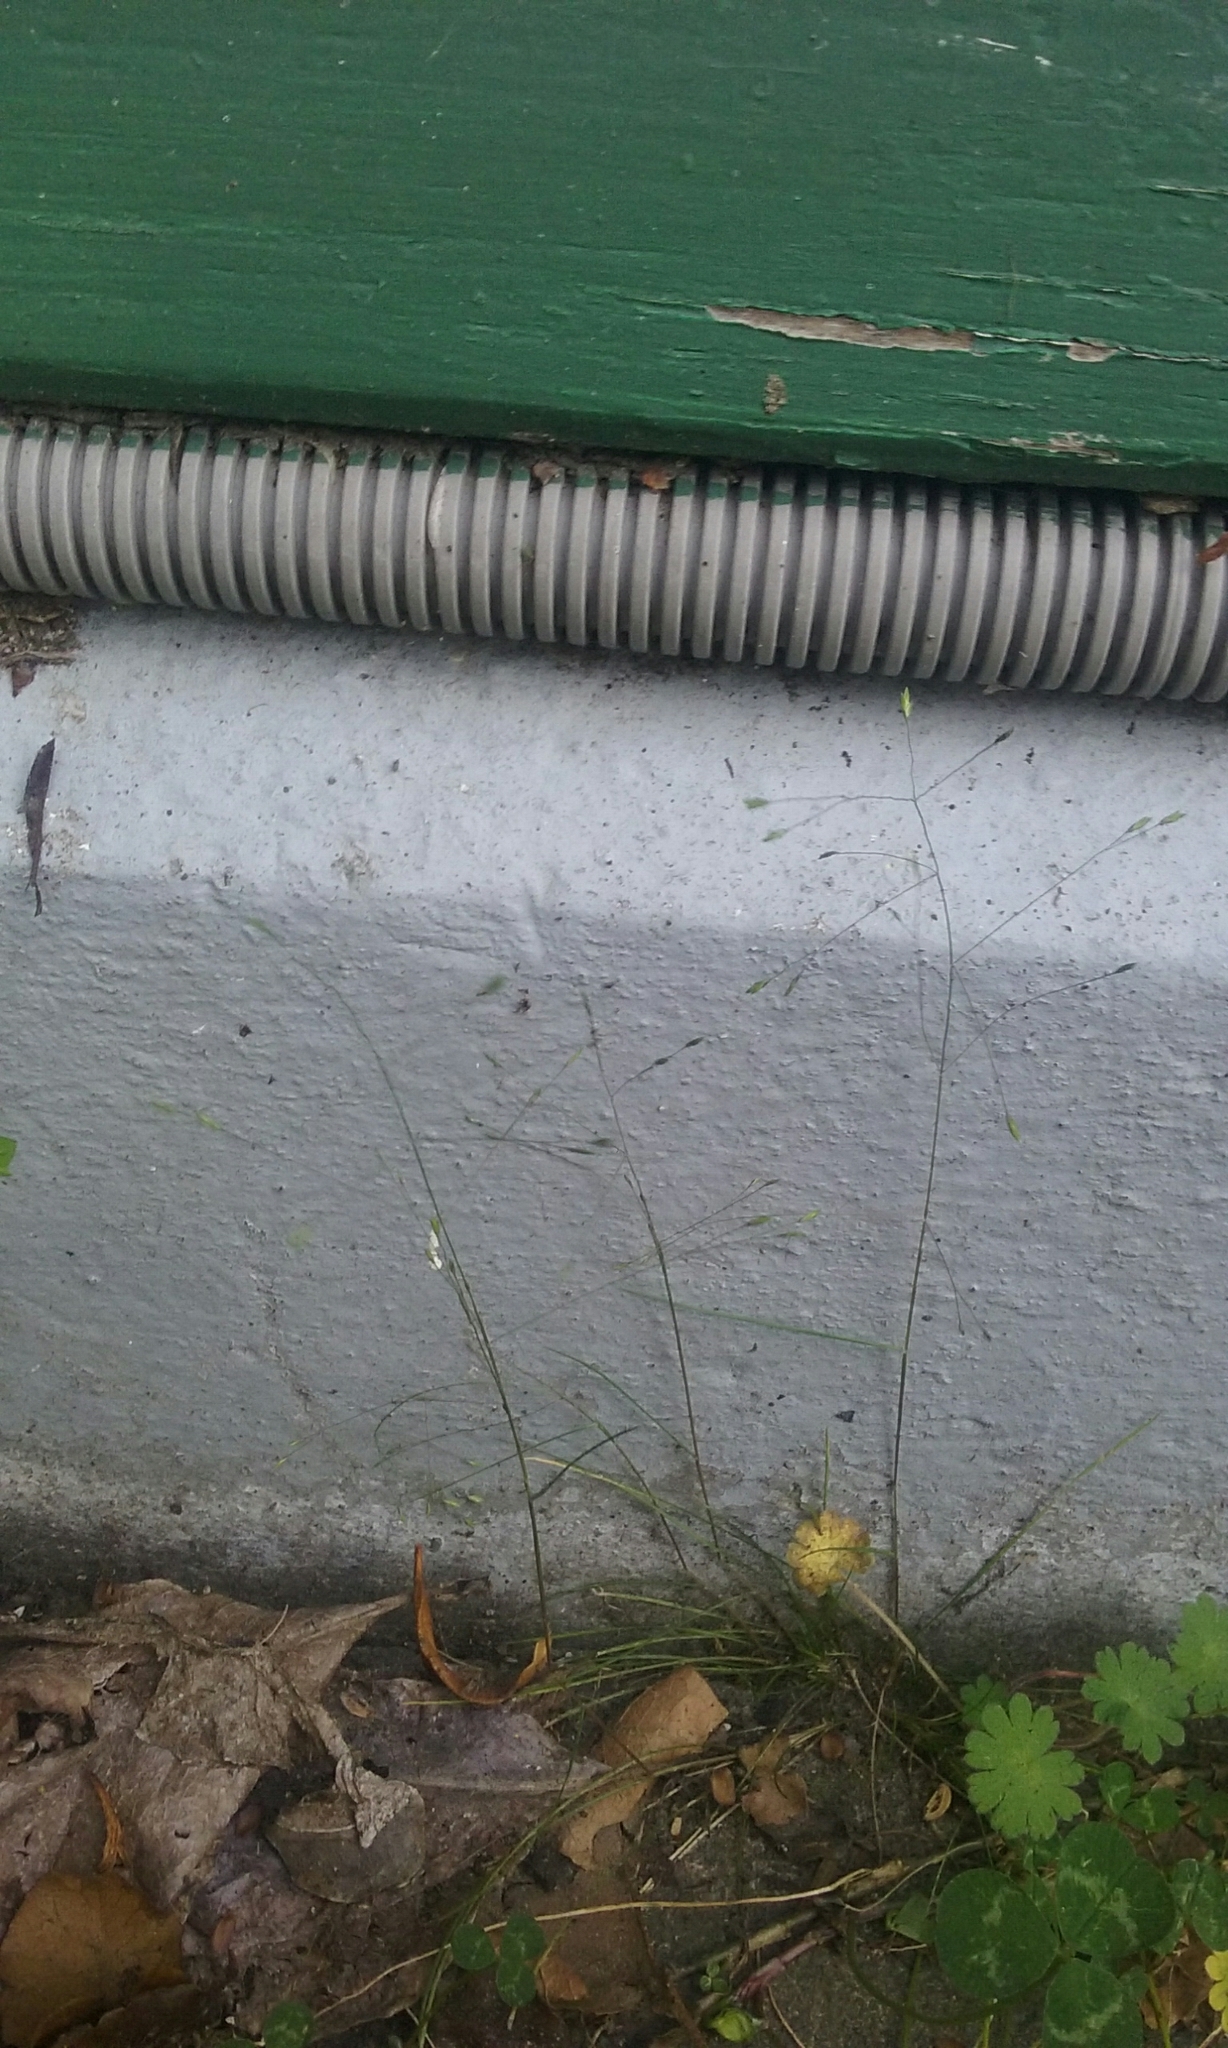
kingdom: Plantae
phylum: Tracheophyta
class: Liliopsida
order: Poales
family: Poaceae
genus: Poa
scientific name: Poa imbecilla
